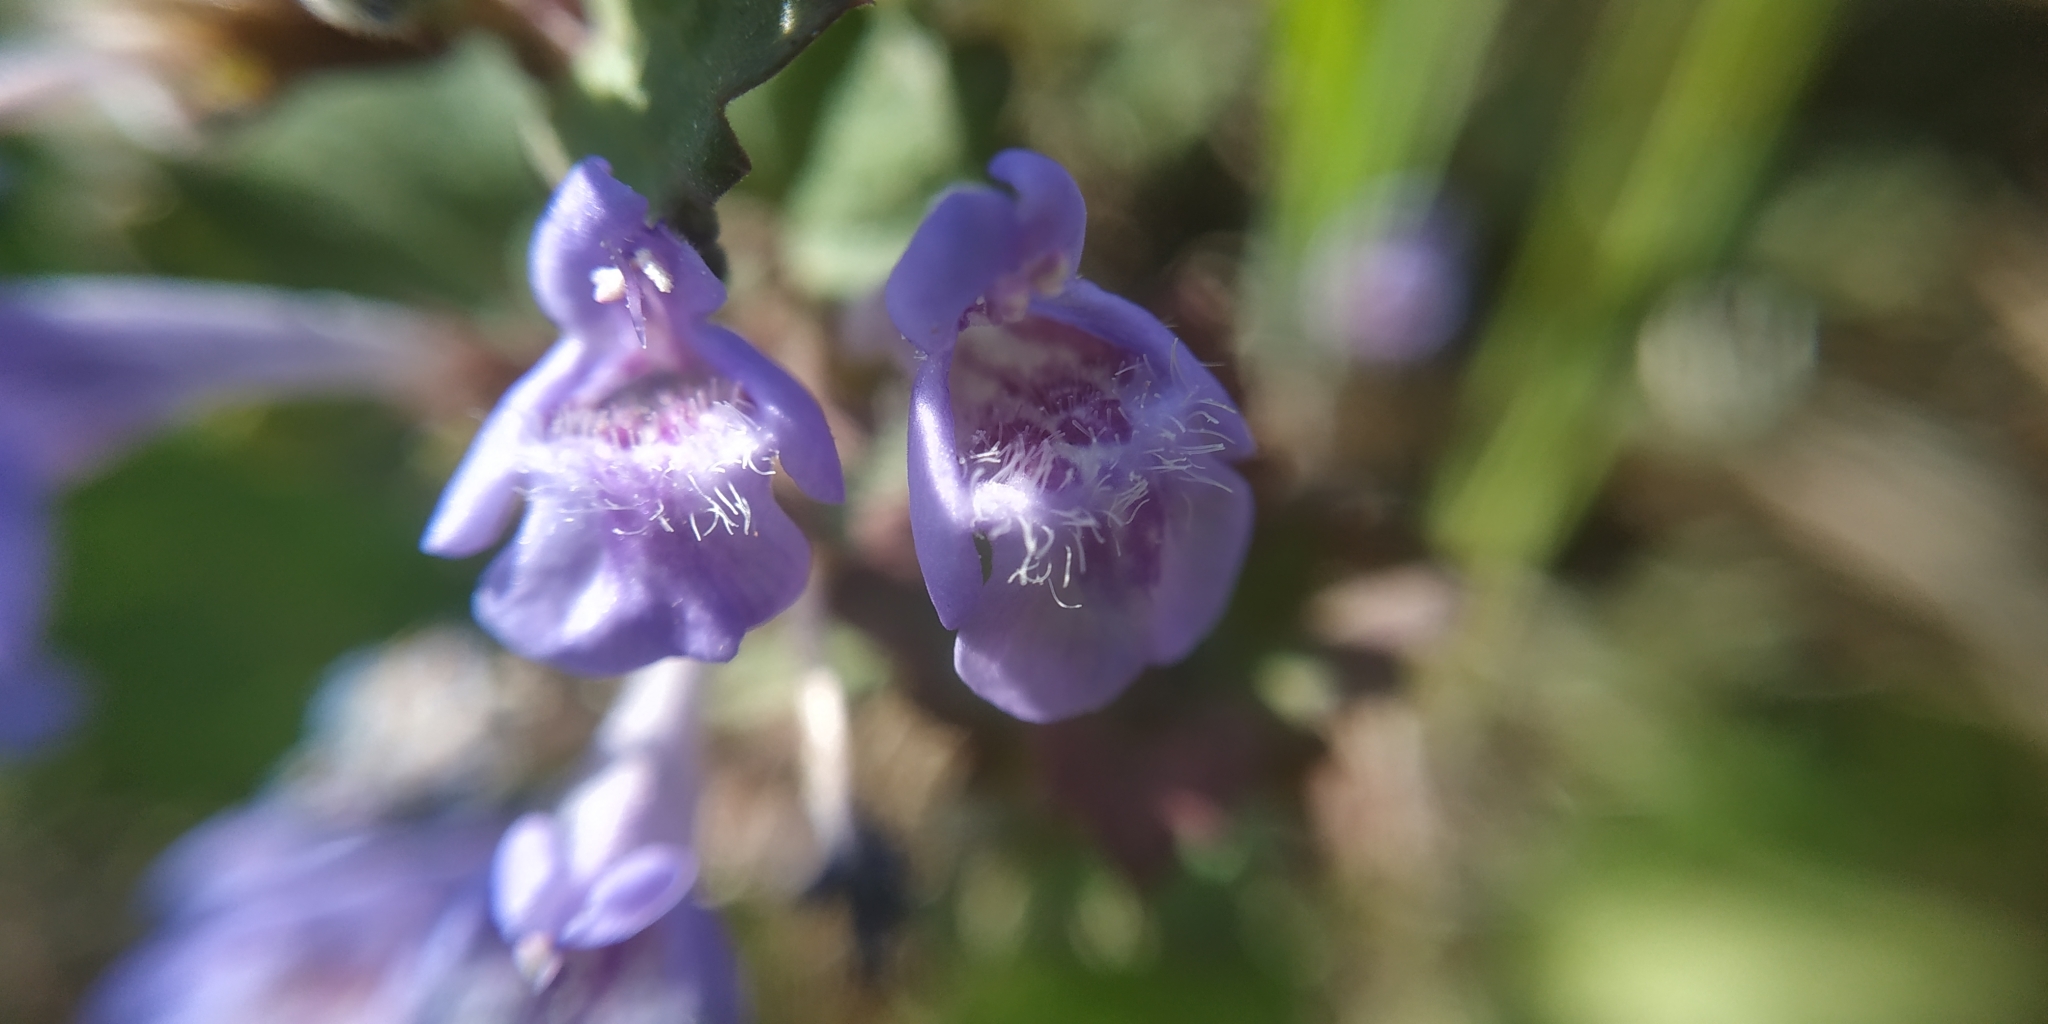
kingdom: Plantae
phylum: Tracheophyta
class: Magnoliopsida
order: Lamiales
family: Lamiaceae
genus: Glechoma
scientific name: Glechoma hederacea
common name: Ground ivy
